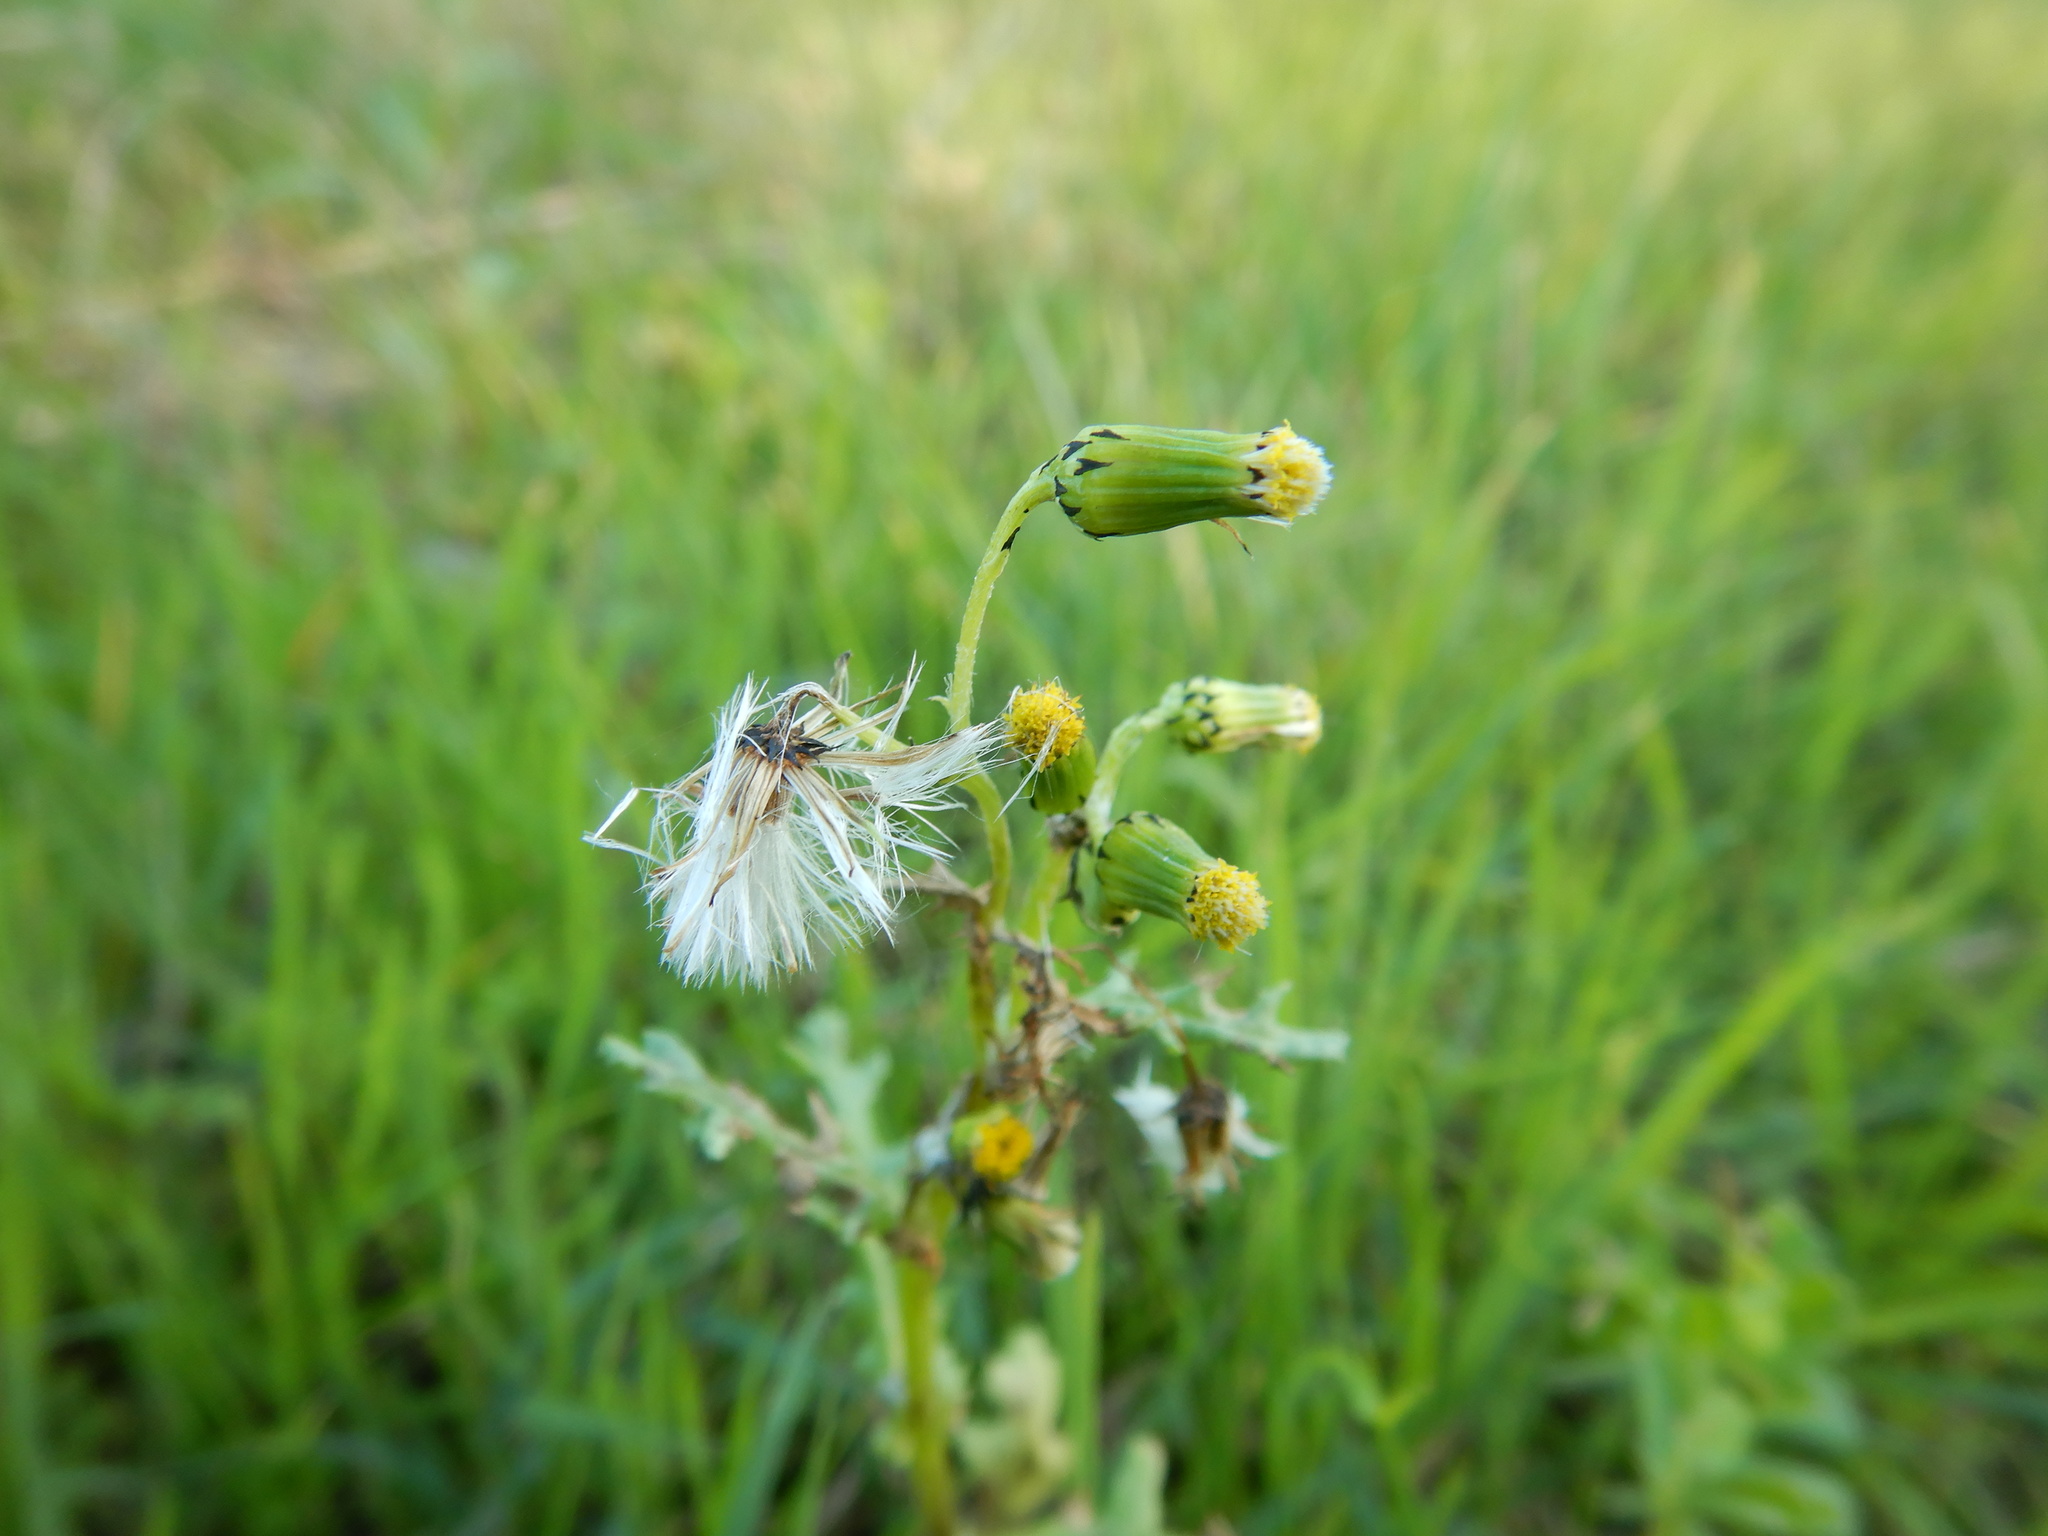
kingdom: Plantae
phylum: Tracheophyta
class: Magnoliopsida
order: Asterales
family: Asteraceae
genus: Senecio
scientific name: Senecio vulgaris
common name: Old-man-in-the-spring
